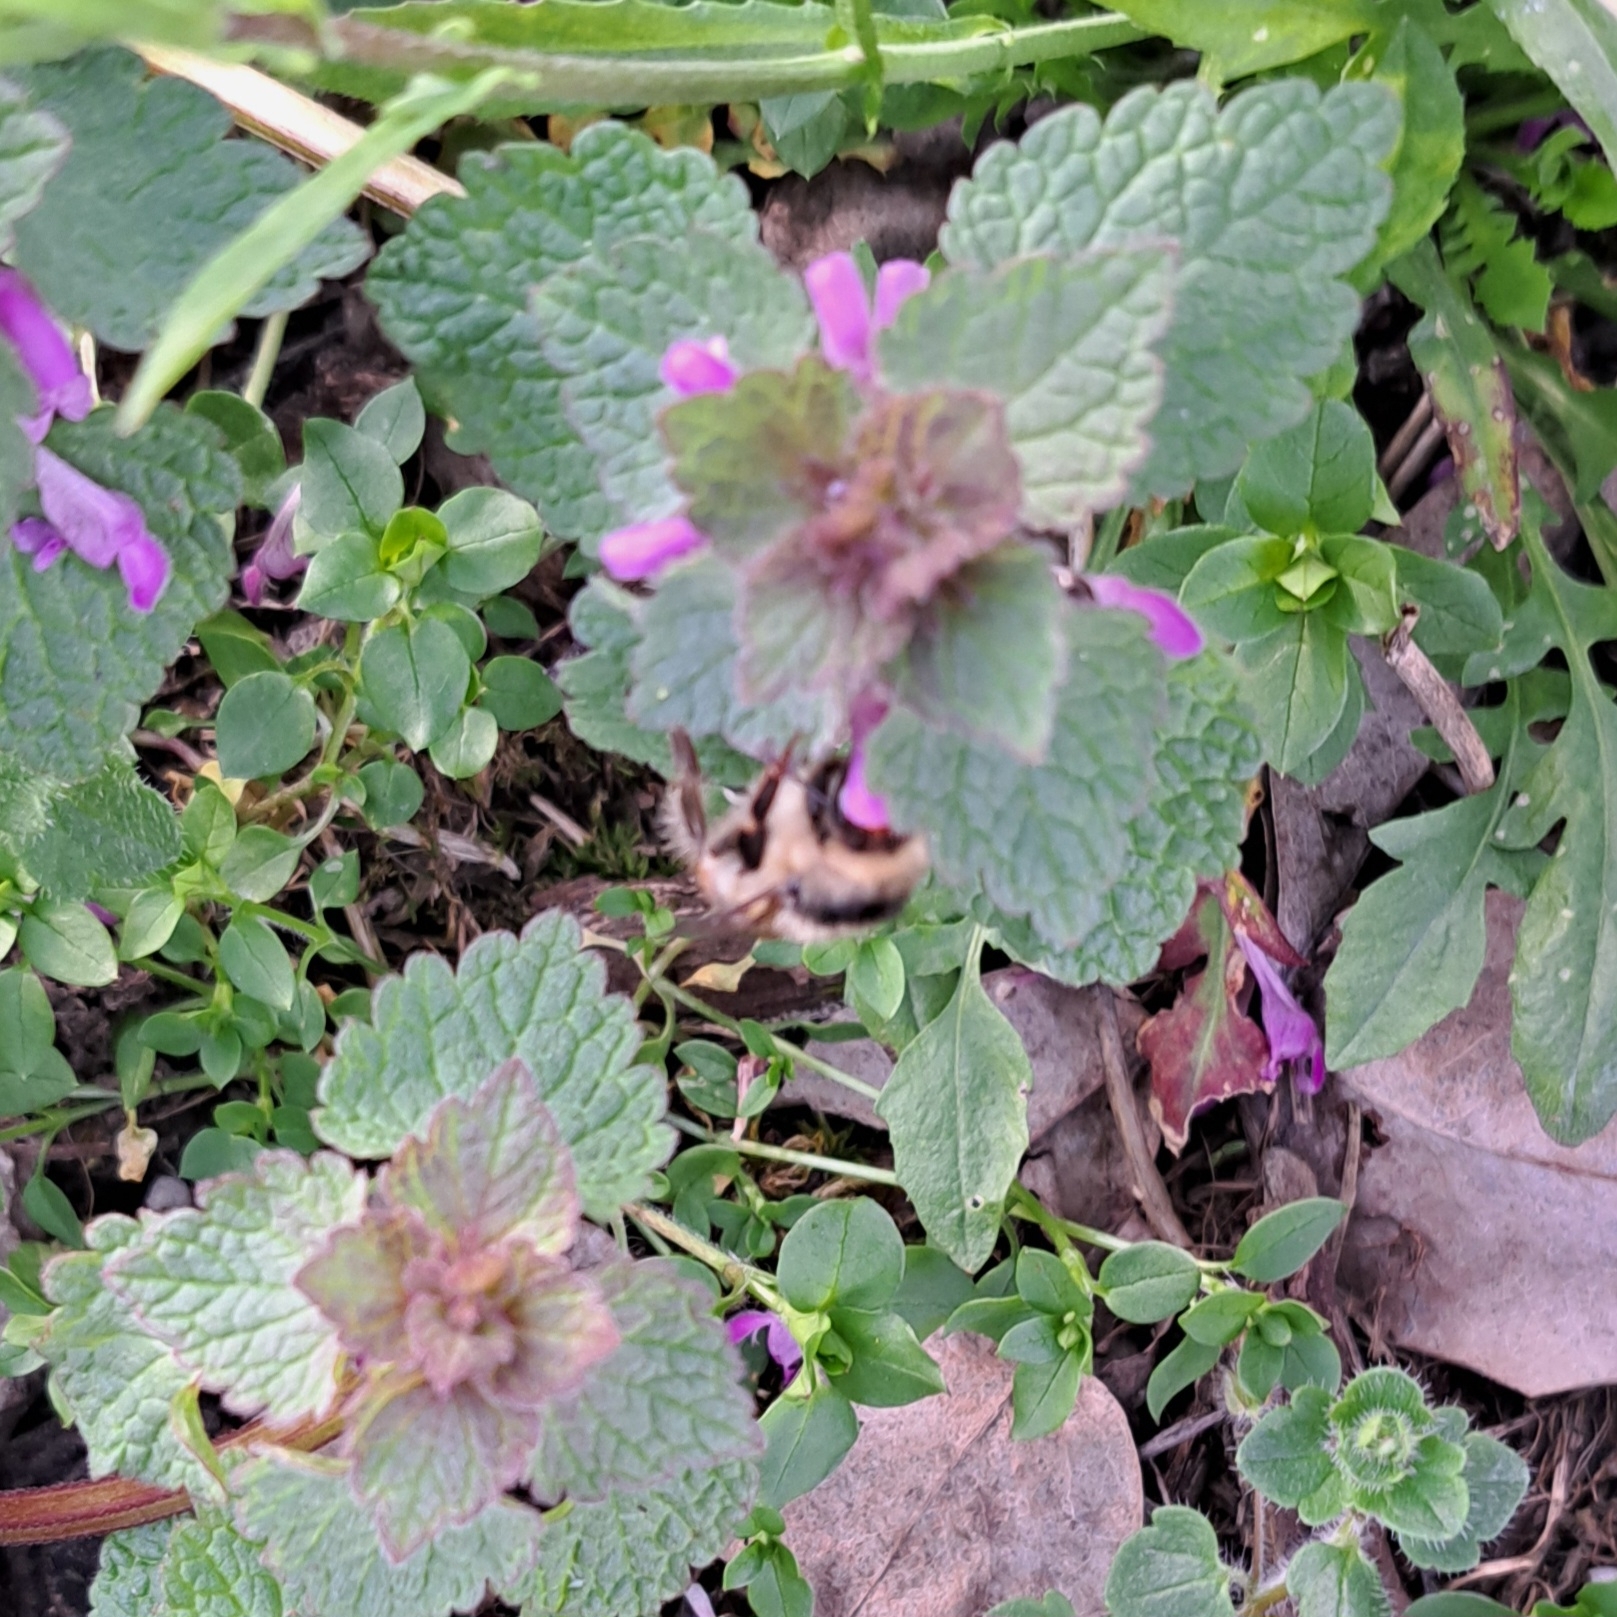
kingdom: Animalia
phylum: Arthropoda
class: Insecta
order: Hymenoptera
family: Apidae
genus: Bombus
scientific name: Bombus sylvarum
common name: Shrill carder bee
